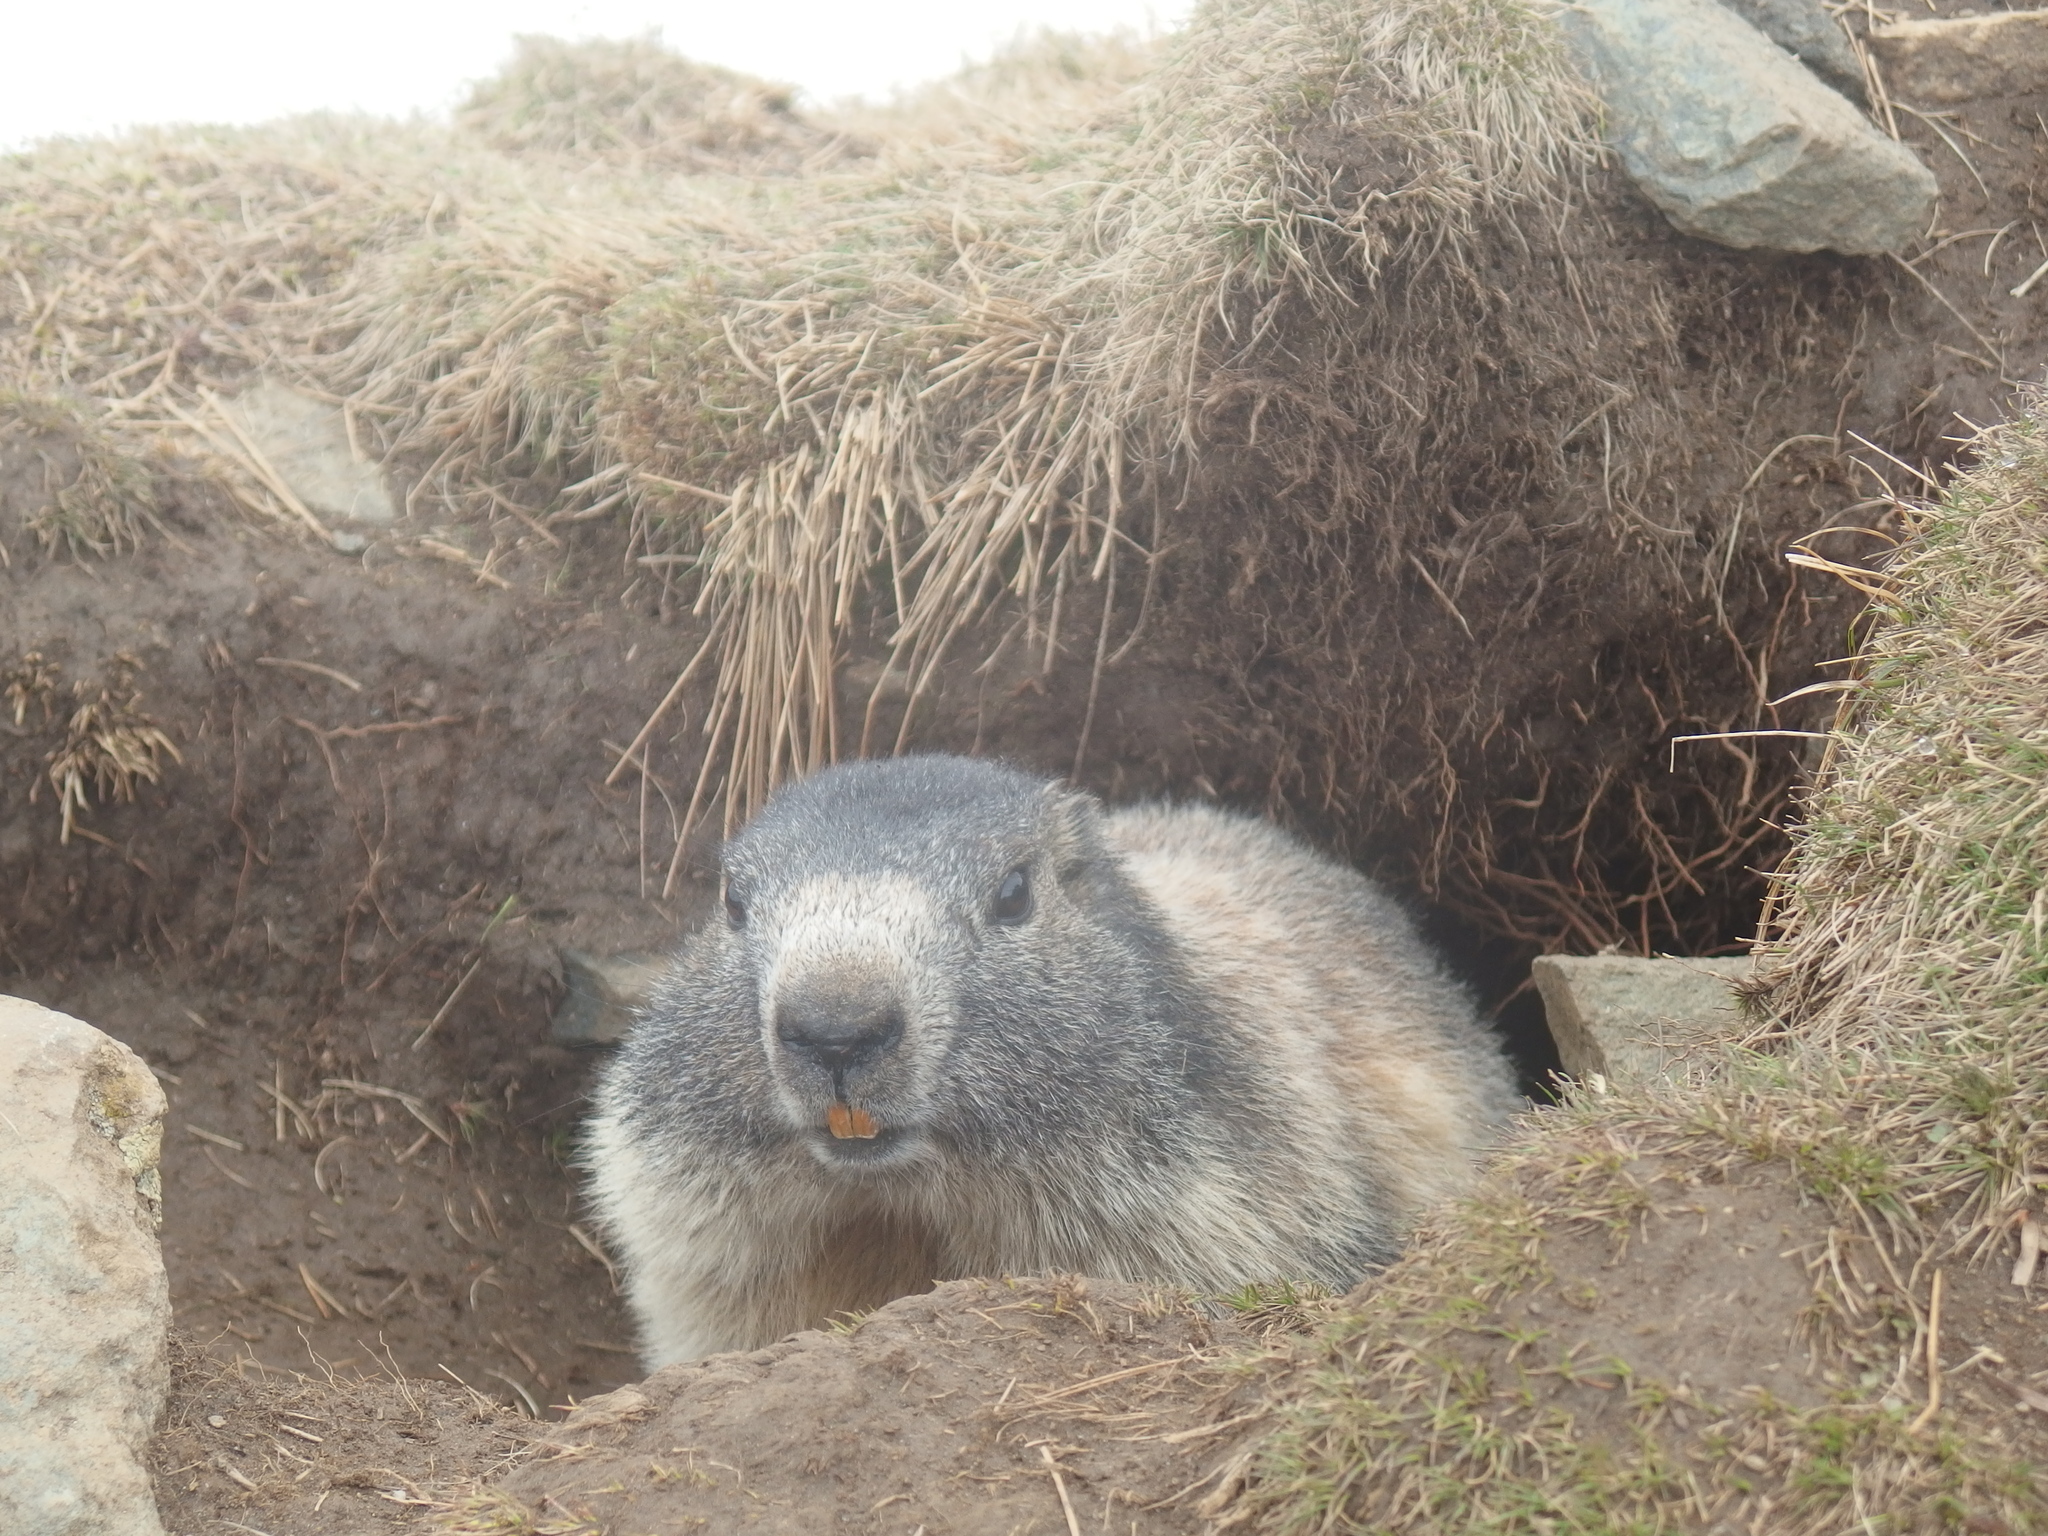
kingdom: Animalia
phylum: Chordata
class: Mammalia
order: Rodentia
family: Sciuridae
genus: Marmota
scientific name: Marmota marmota
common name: Alpine marmot
